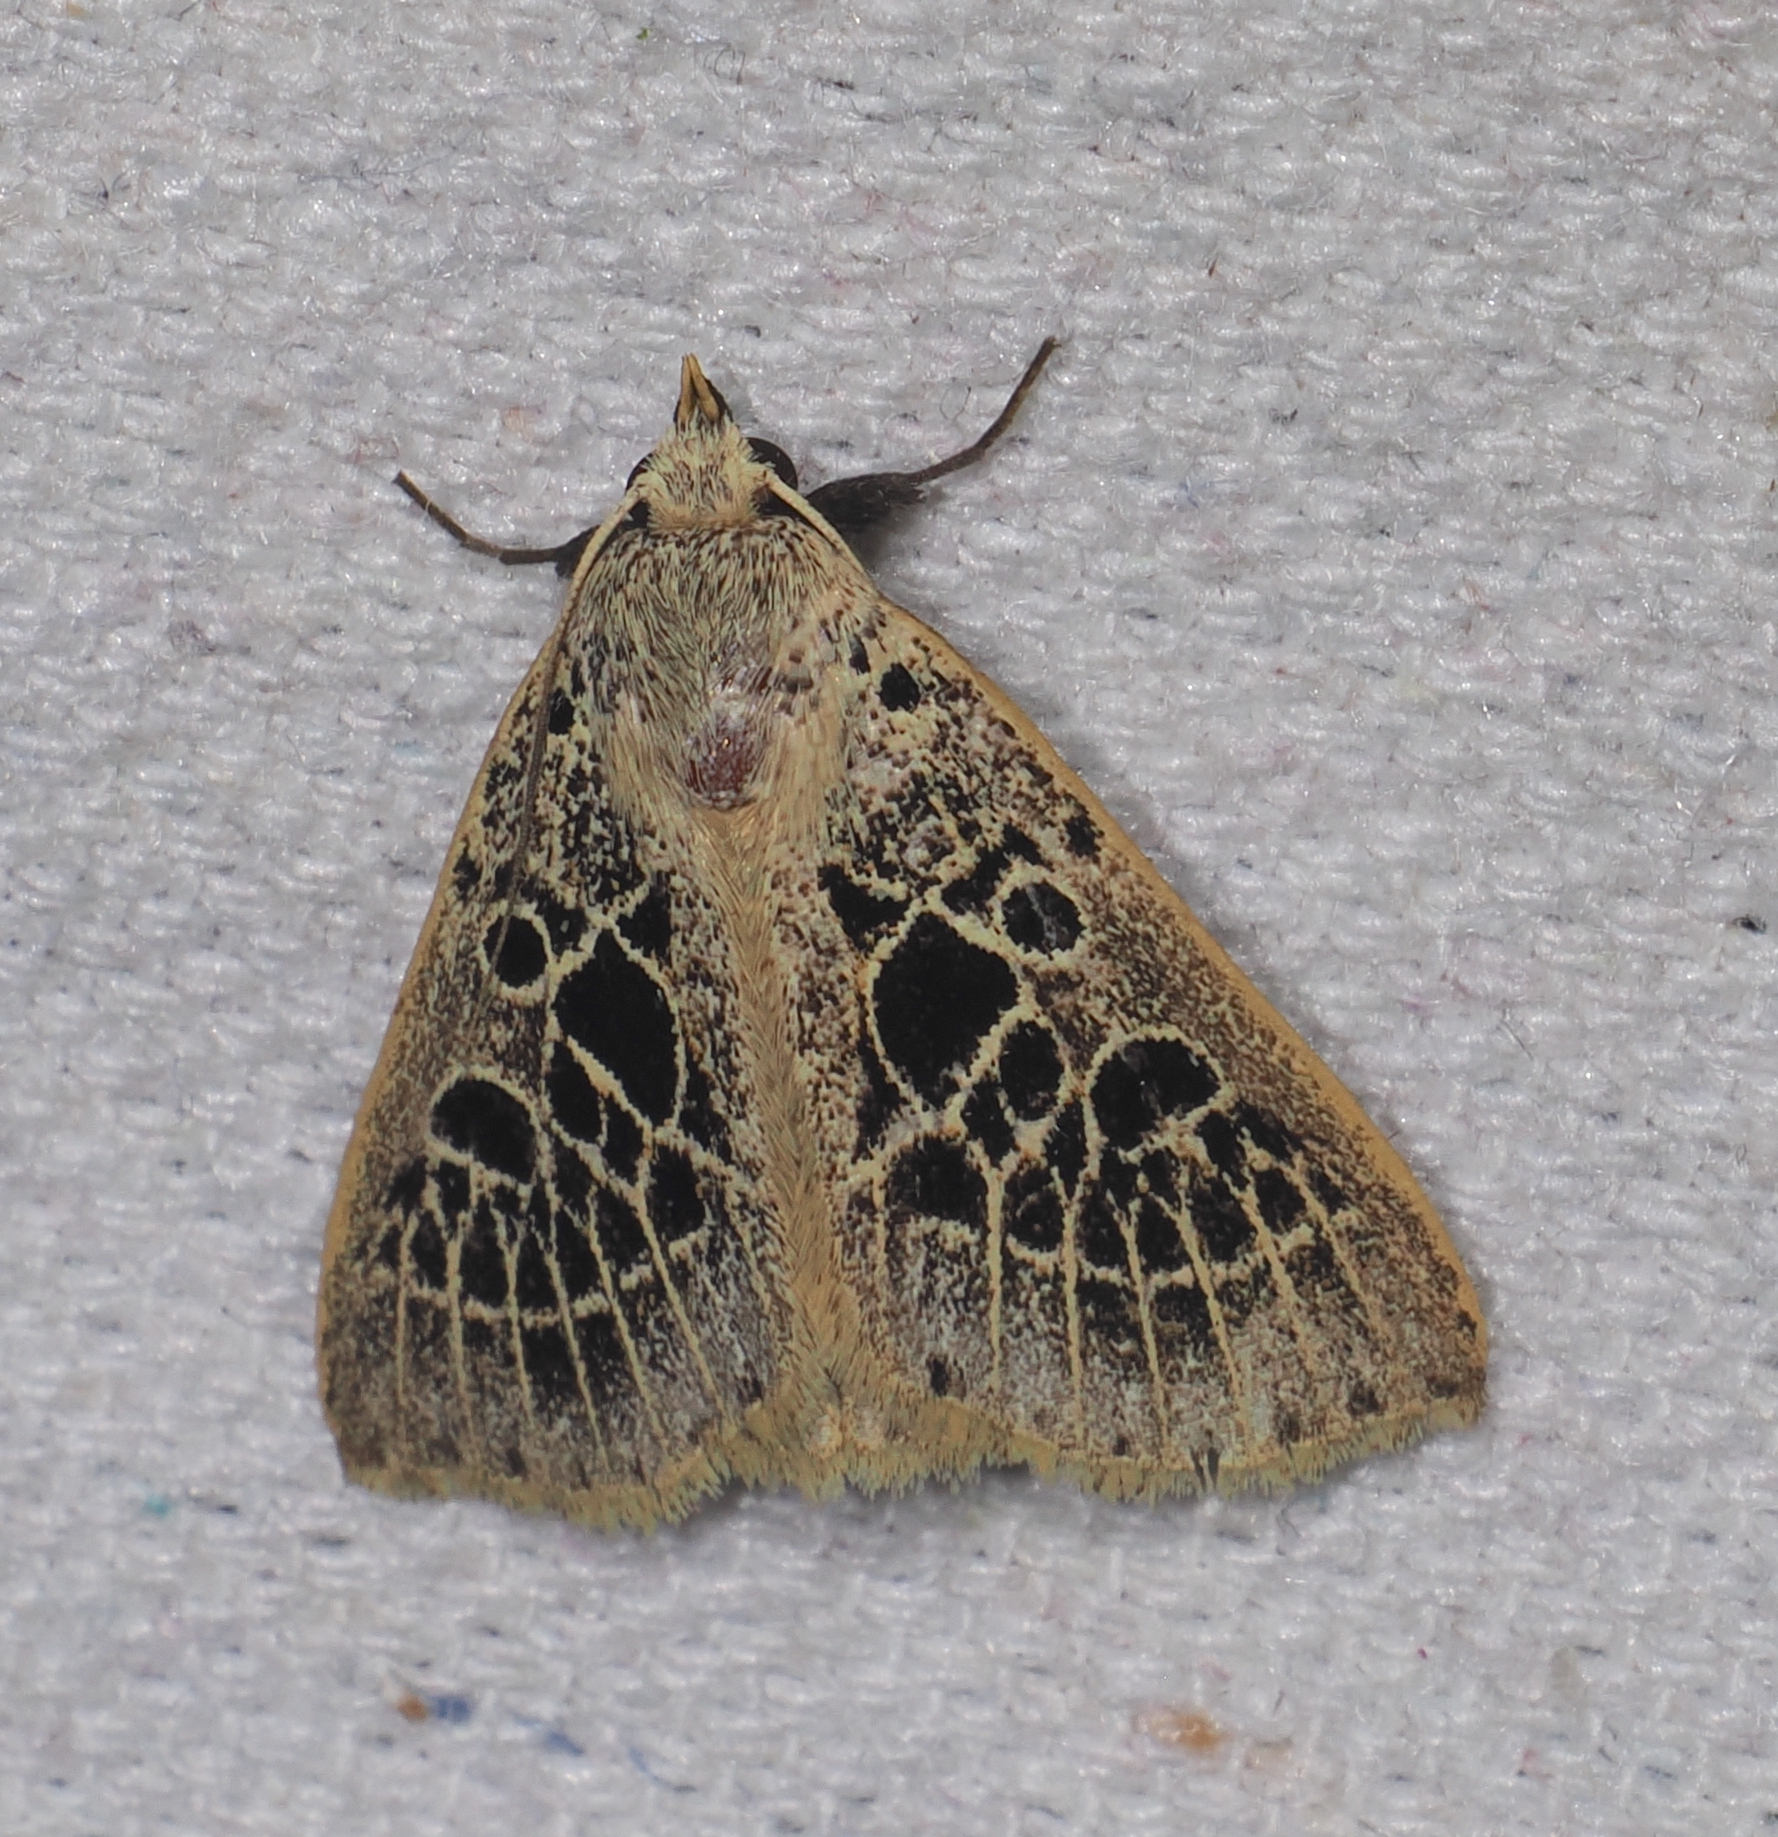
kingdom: Animalia
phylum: Arthropoda
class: Insecta
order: Lepidoptera
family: Erebidae
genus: Scolecocampa
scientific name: Scolecocampa Herminodes tessellata
